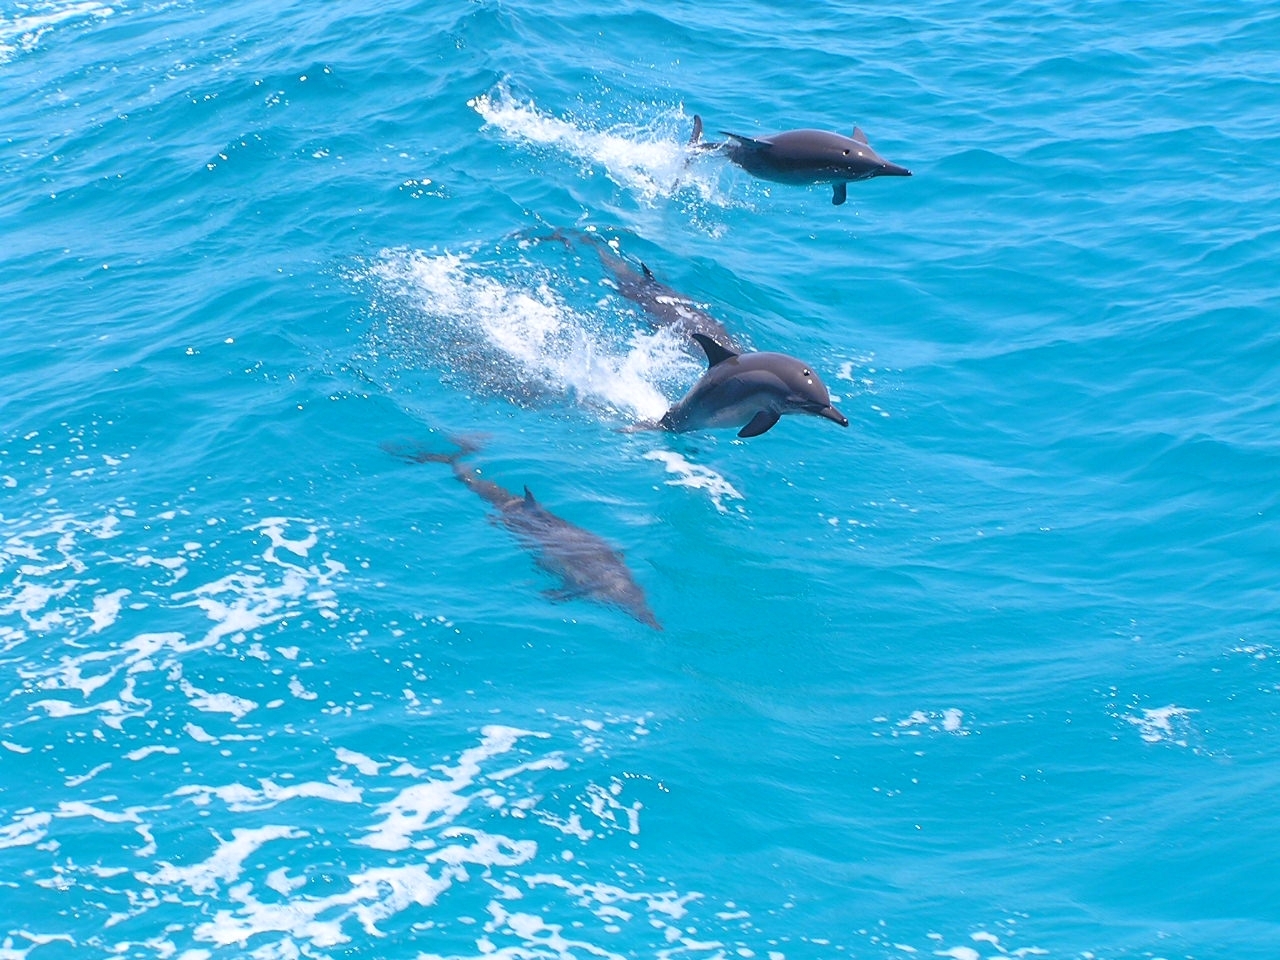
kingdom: Animalia
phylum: Chordata
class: Mammalia
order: Cetacea
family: Delphinidae
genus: Stenella
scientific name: Stenella longirostris
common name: Spinner dolphin
